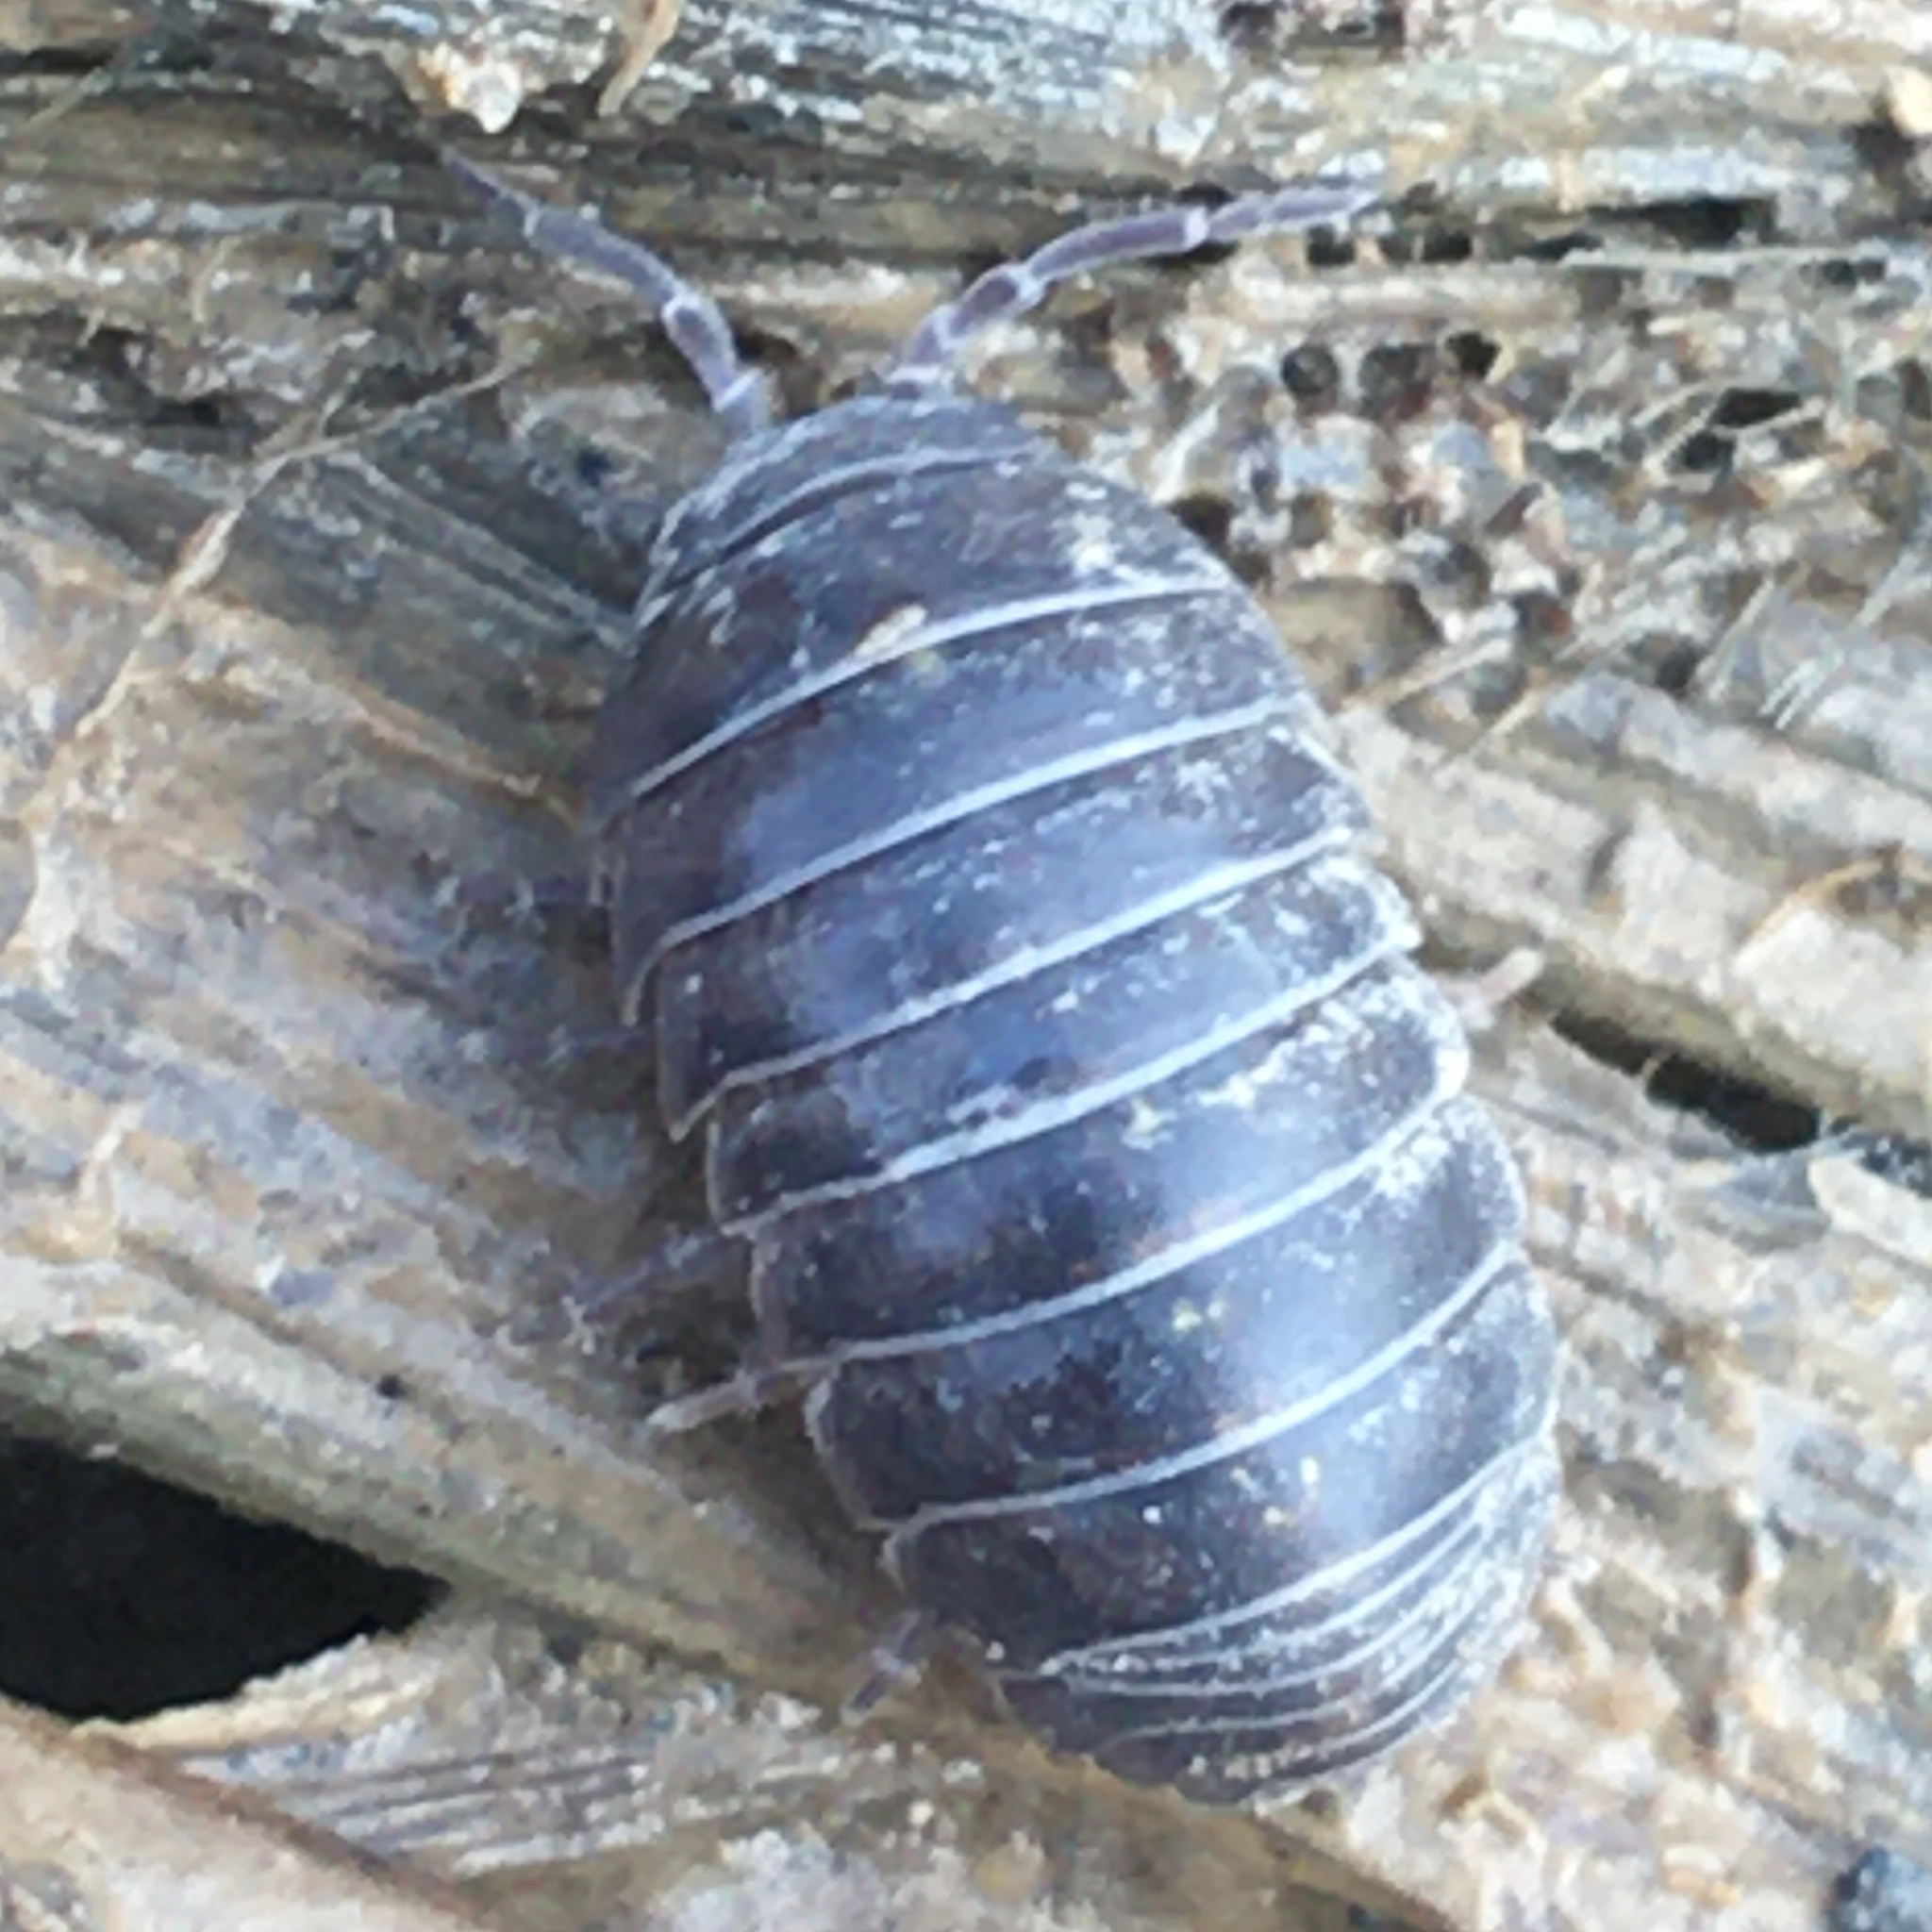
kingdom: Animalia
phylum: Arthropoda
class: Malacostraca
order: Isopoda
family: Armadillidiidae
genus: Armadillidium
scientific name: Armadillidium vulgare
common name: Common pill woodlouse
